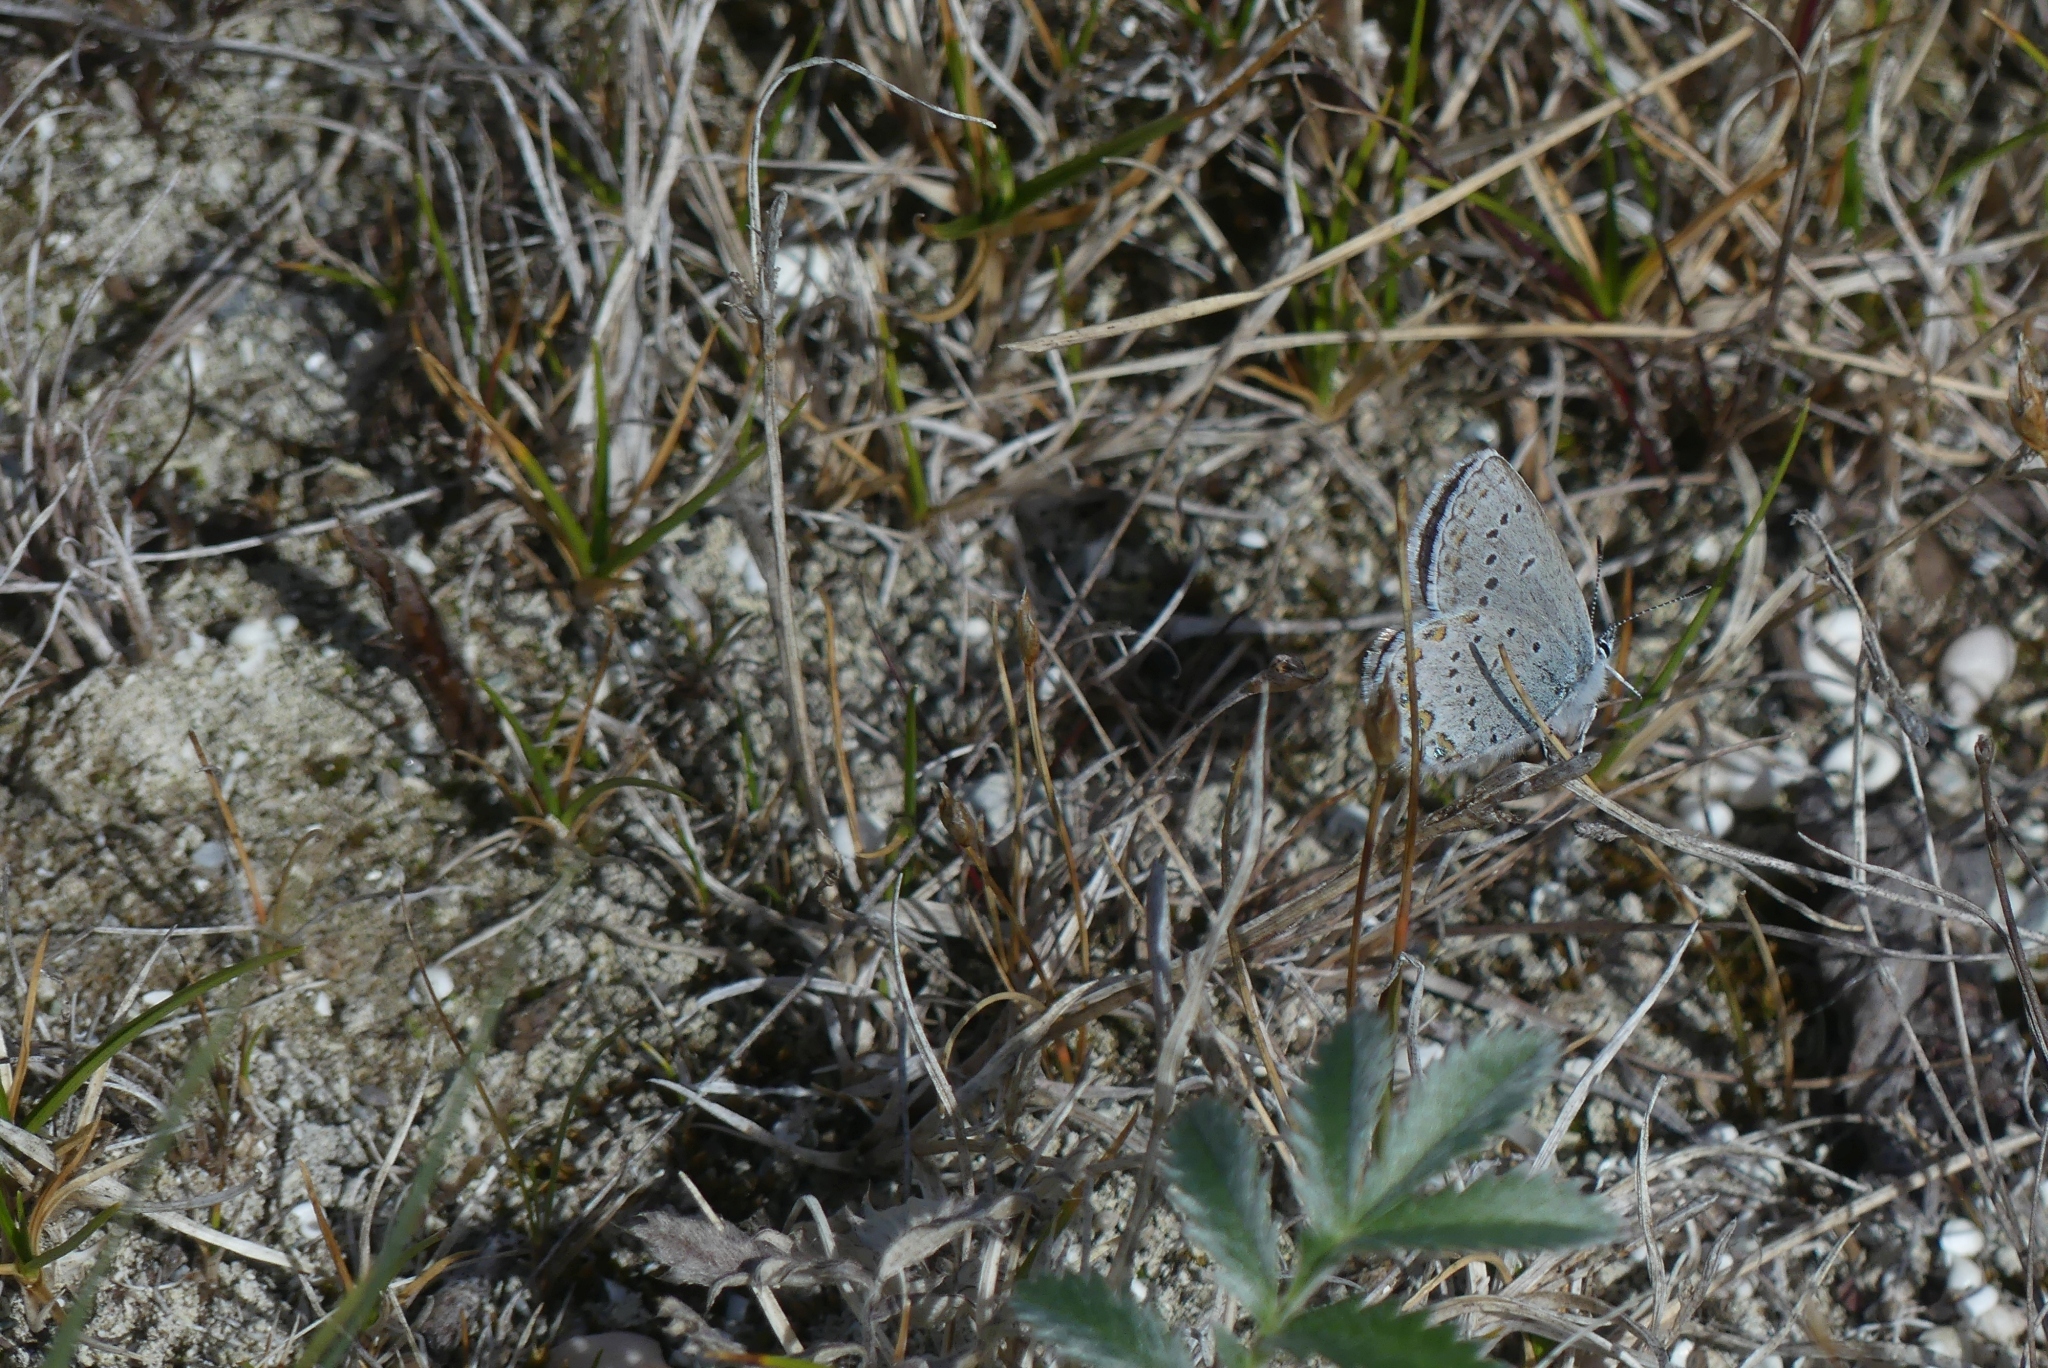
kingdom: Animalia
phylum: Arthropoda
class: Insecta
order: Lepidoptera
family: Lycaenidae
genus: Lycaeides
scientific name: Lycaeides idas
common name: Northern blue
